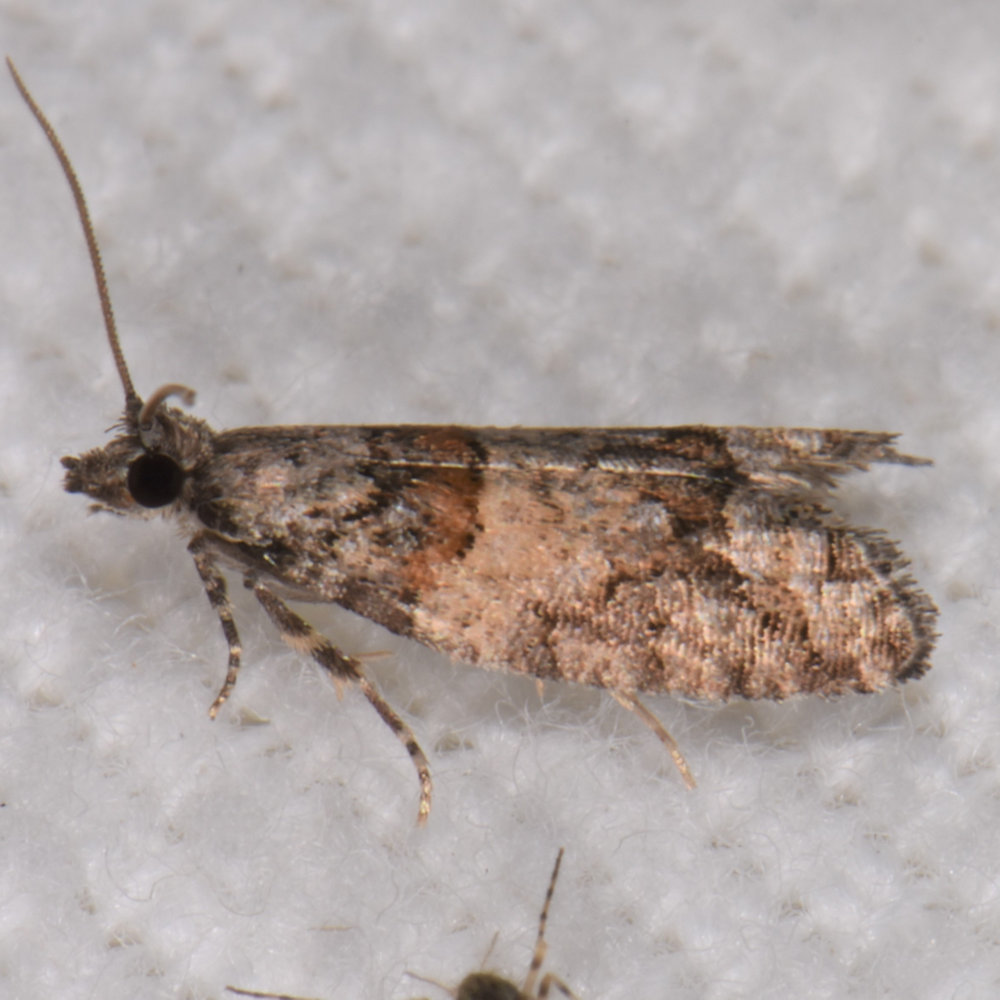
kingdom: Animalia
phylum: Arthropoda
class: Insecta
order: Lepidoptera
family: Tortricidae
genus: Epinotia
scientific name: Epinotia radicana
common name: Red-striped needleworm moth
